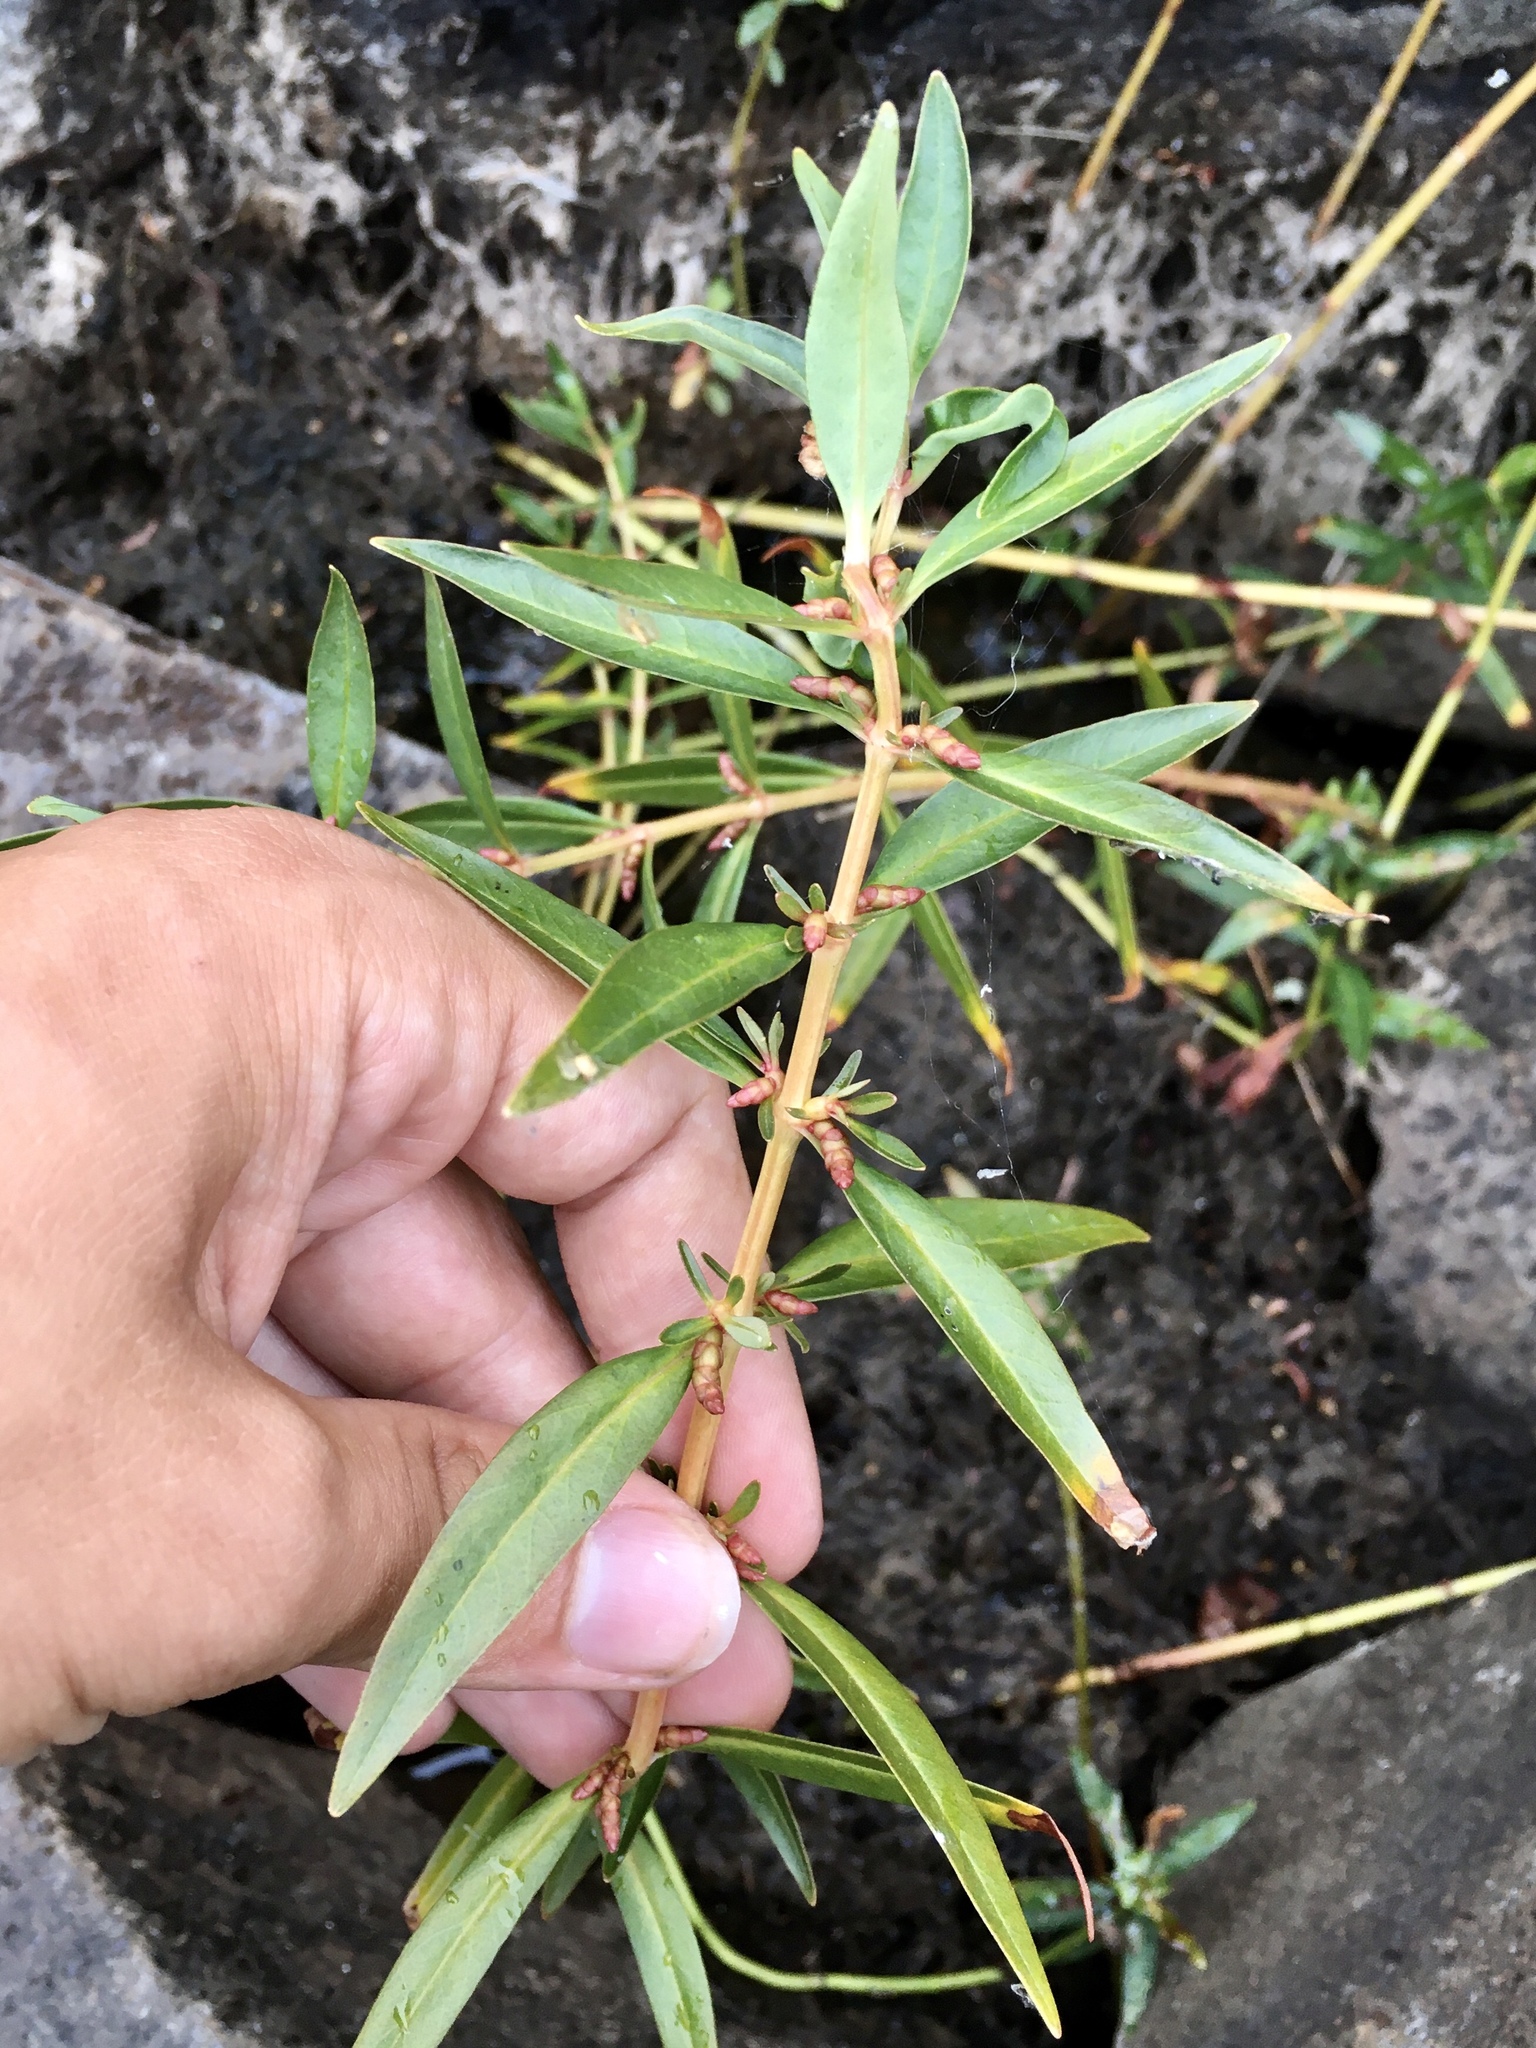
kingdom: Plantae
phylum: Tracheophyta
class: Magnoliopsida
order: Ericales
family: Primulaceae
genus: Lysimachia
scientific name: Lysimachia terrestris
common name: Lake loosestrife
